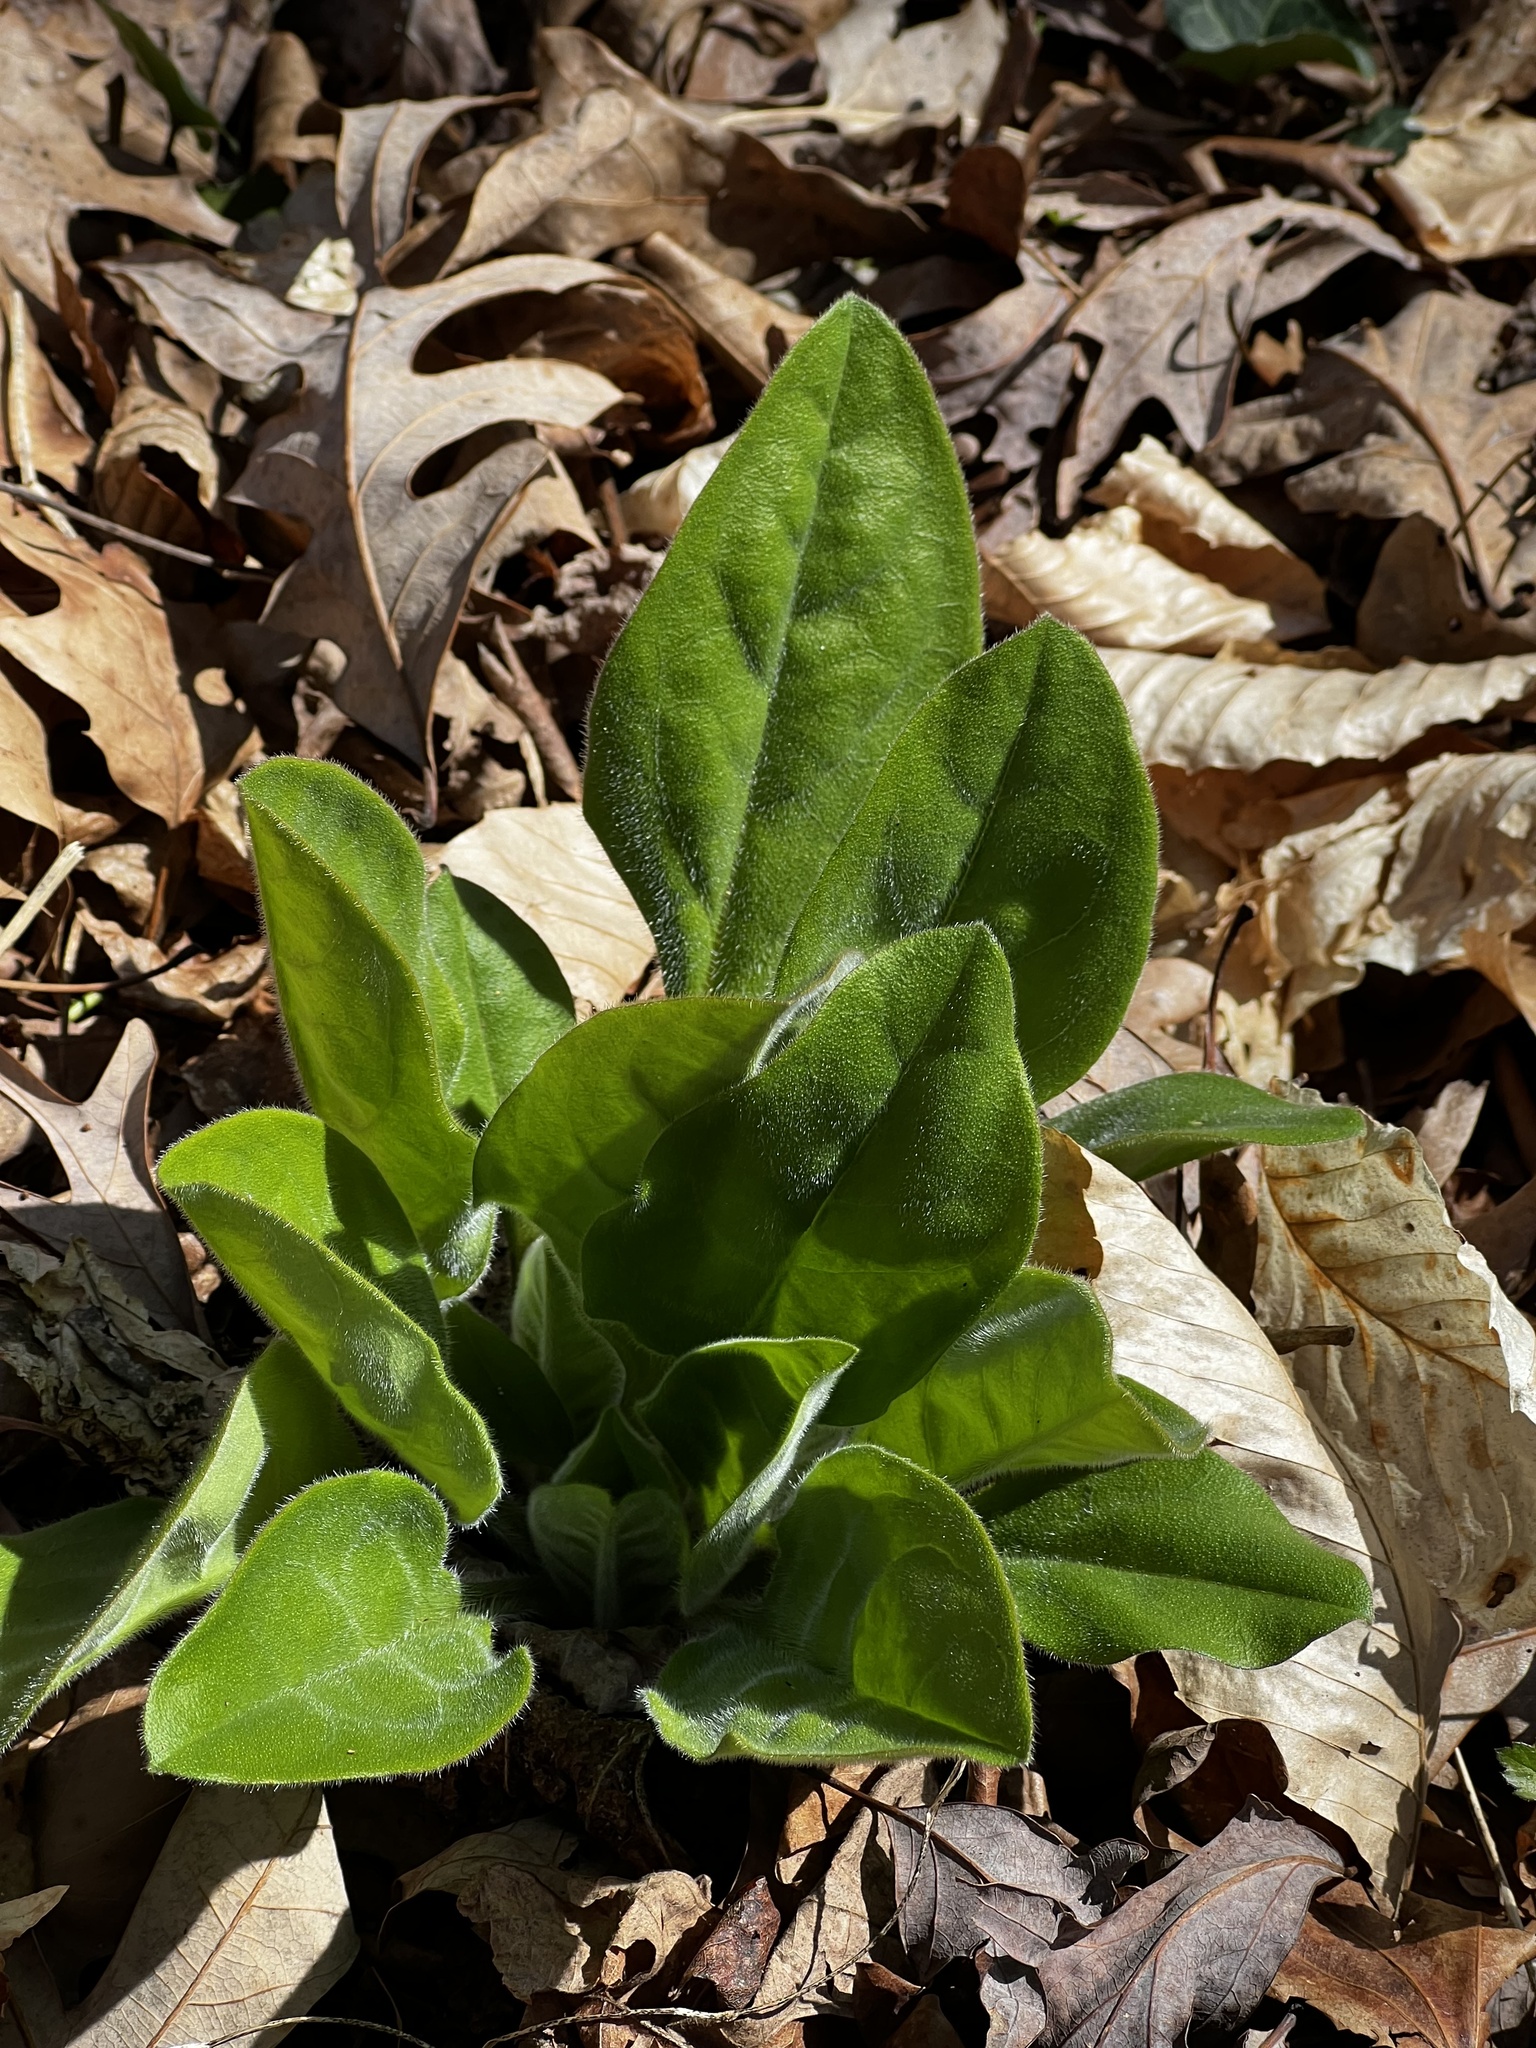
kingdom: Plantae
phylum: Tracheophyta
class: Magnoliopsida
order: Boraginales
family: Boraginaceae
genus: Andersonglossum
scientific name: Andersonglossum virginianum
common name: Wild comfrey
